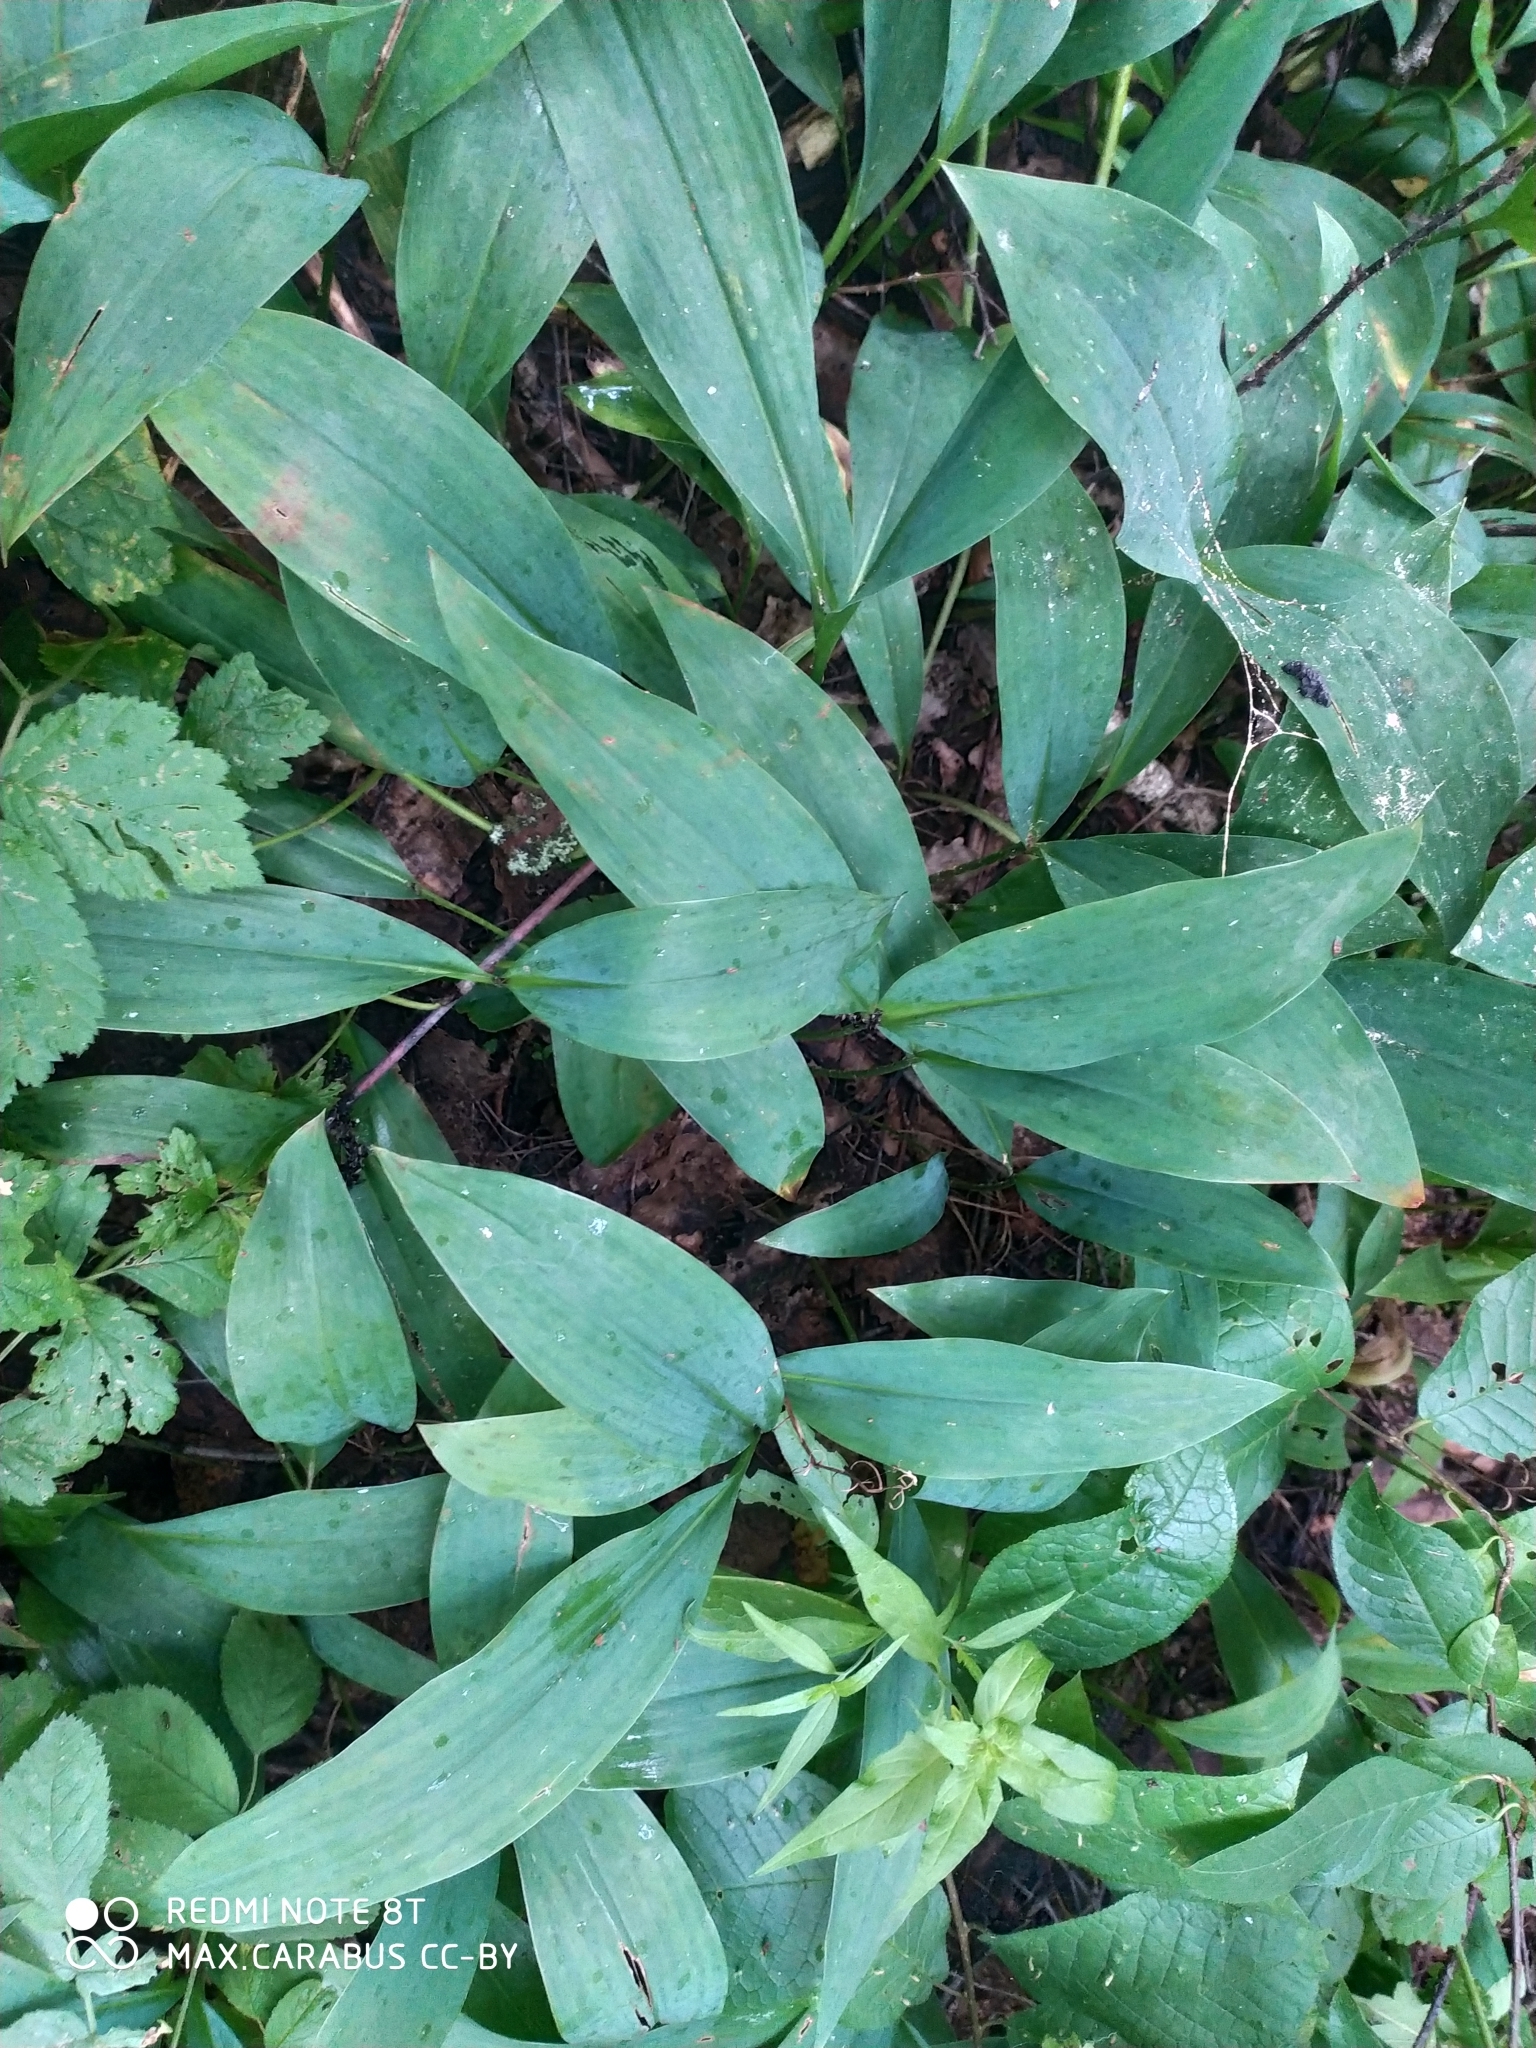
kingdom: Plantae
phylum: Tracheophyta
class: Liliopsida
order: Asparagales
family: Asparagaceae
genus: Convallaria
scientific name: Convallaria majalis
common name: Lily-of-the-valley
